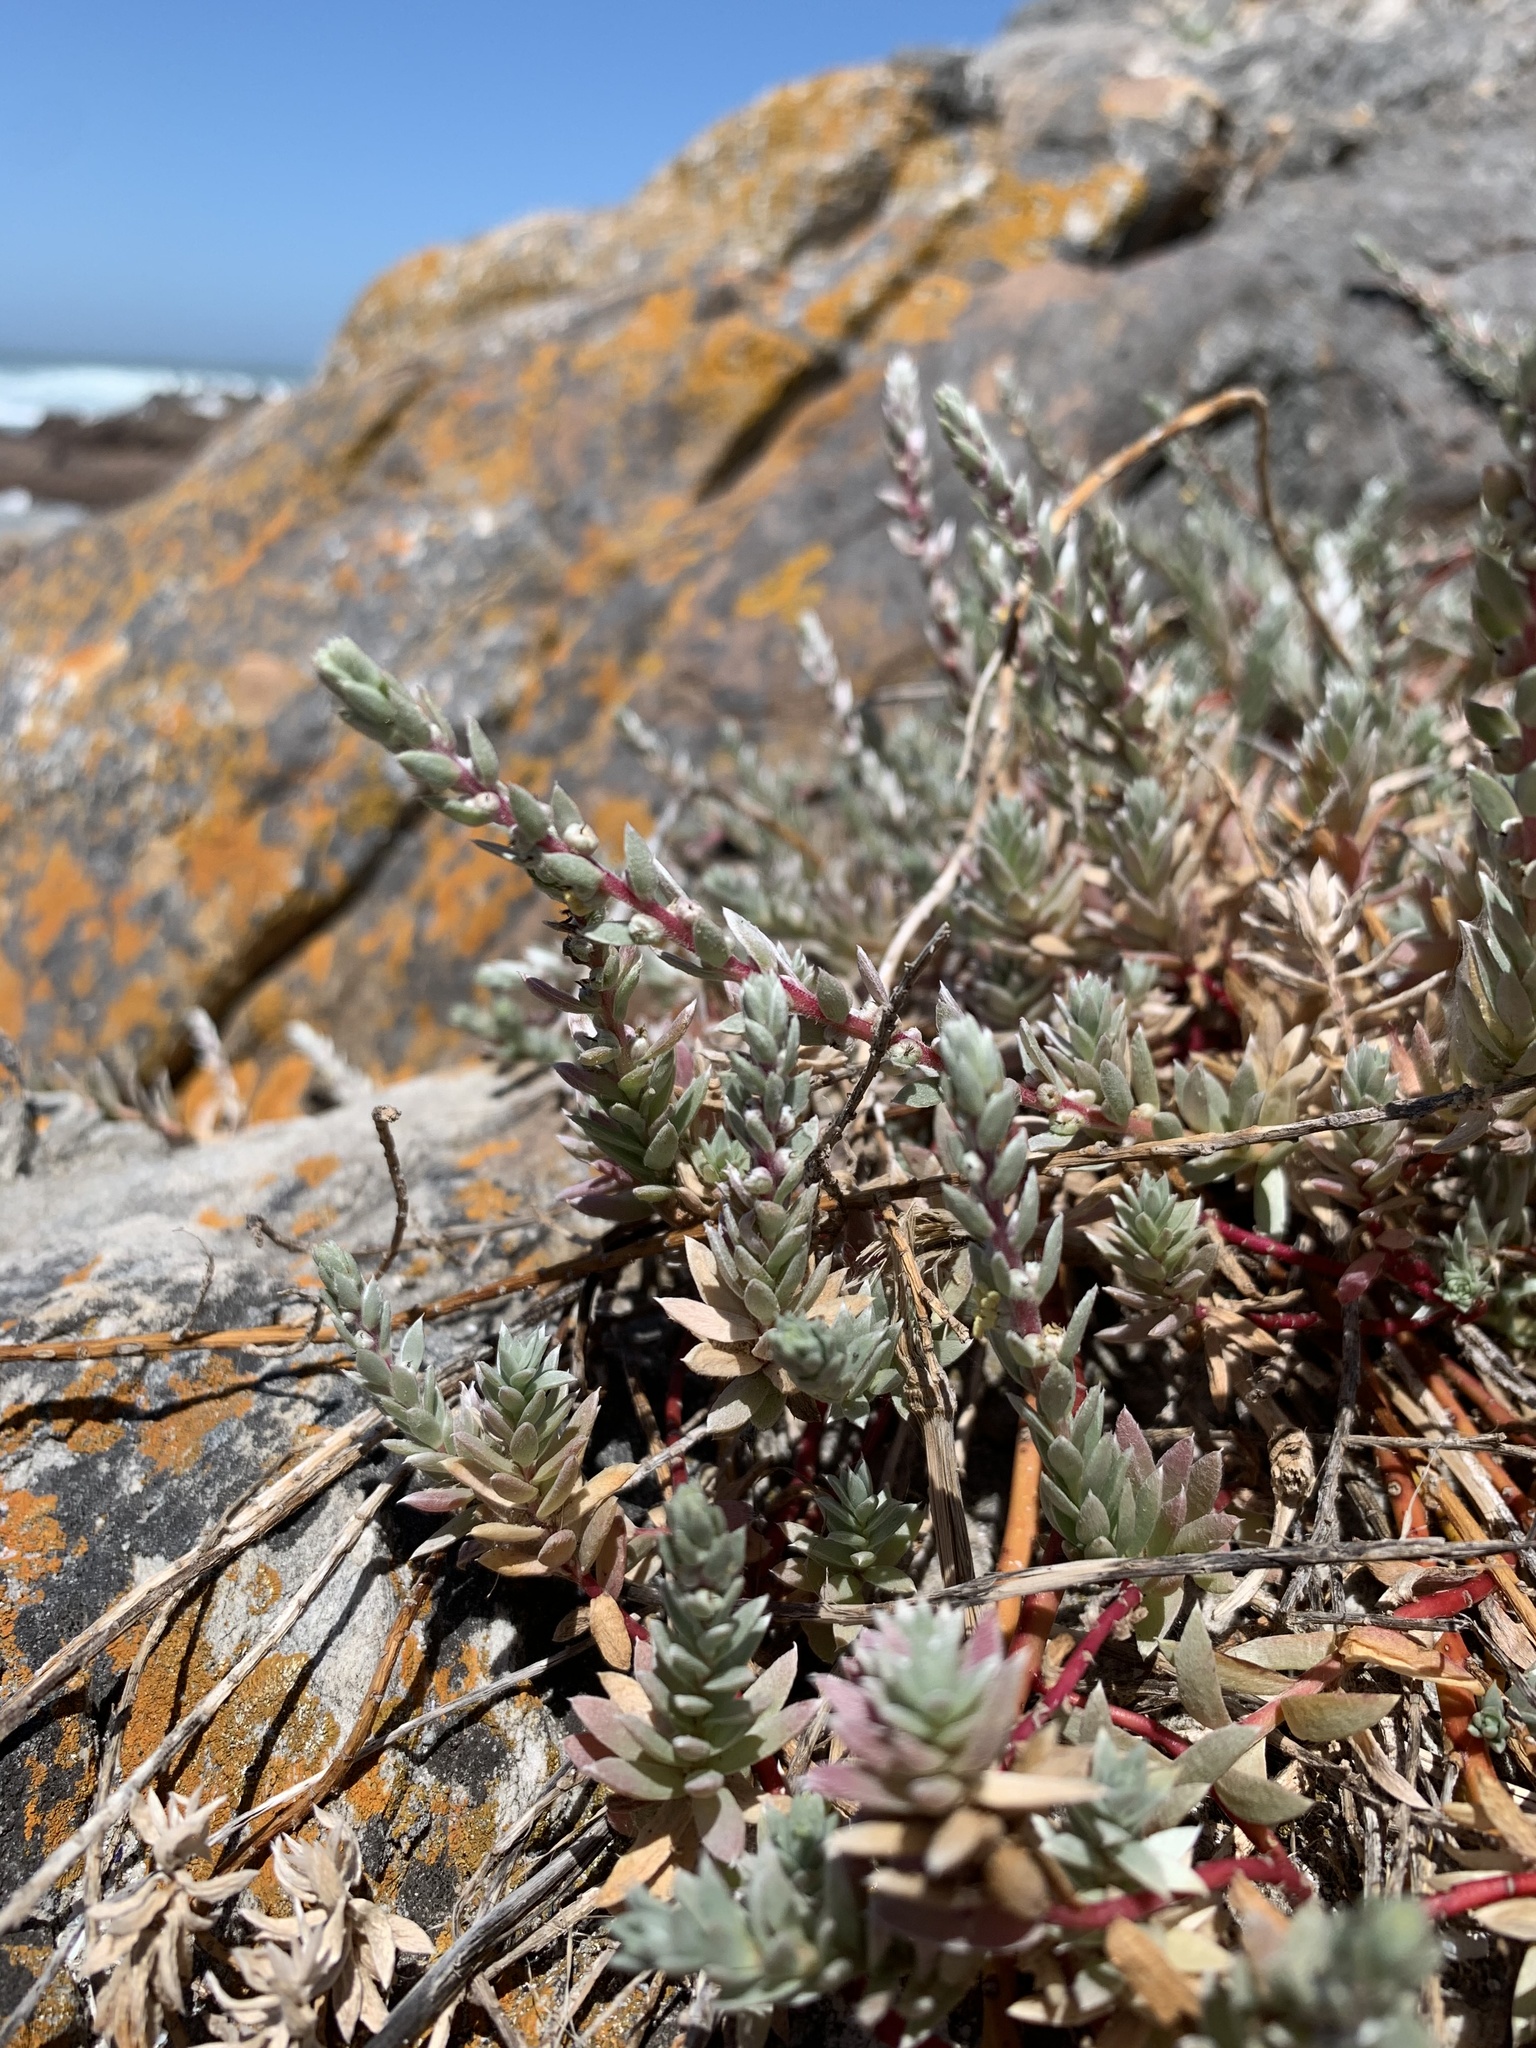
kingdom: Plantae
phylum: Tracheophyta
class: Magnoliopsida
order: Caryophyllales
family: Amaranthaceae
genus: Chenolea
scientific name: Chenolea diffusa
